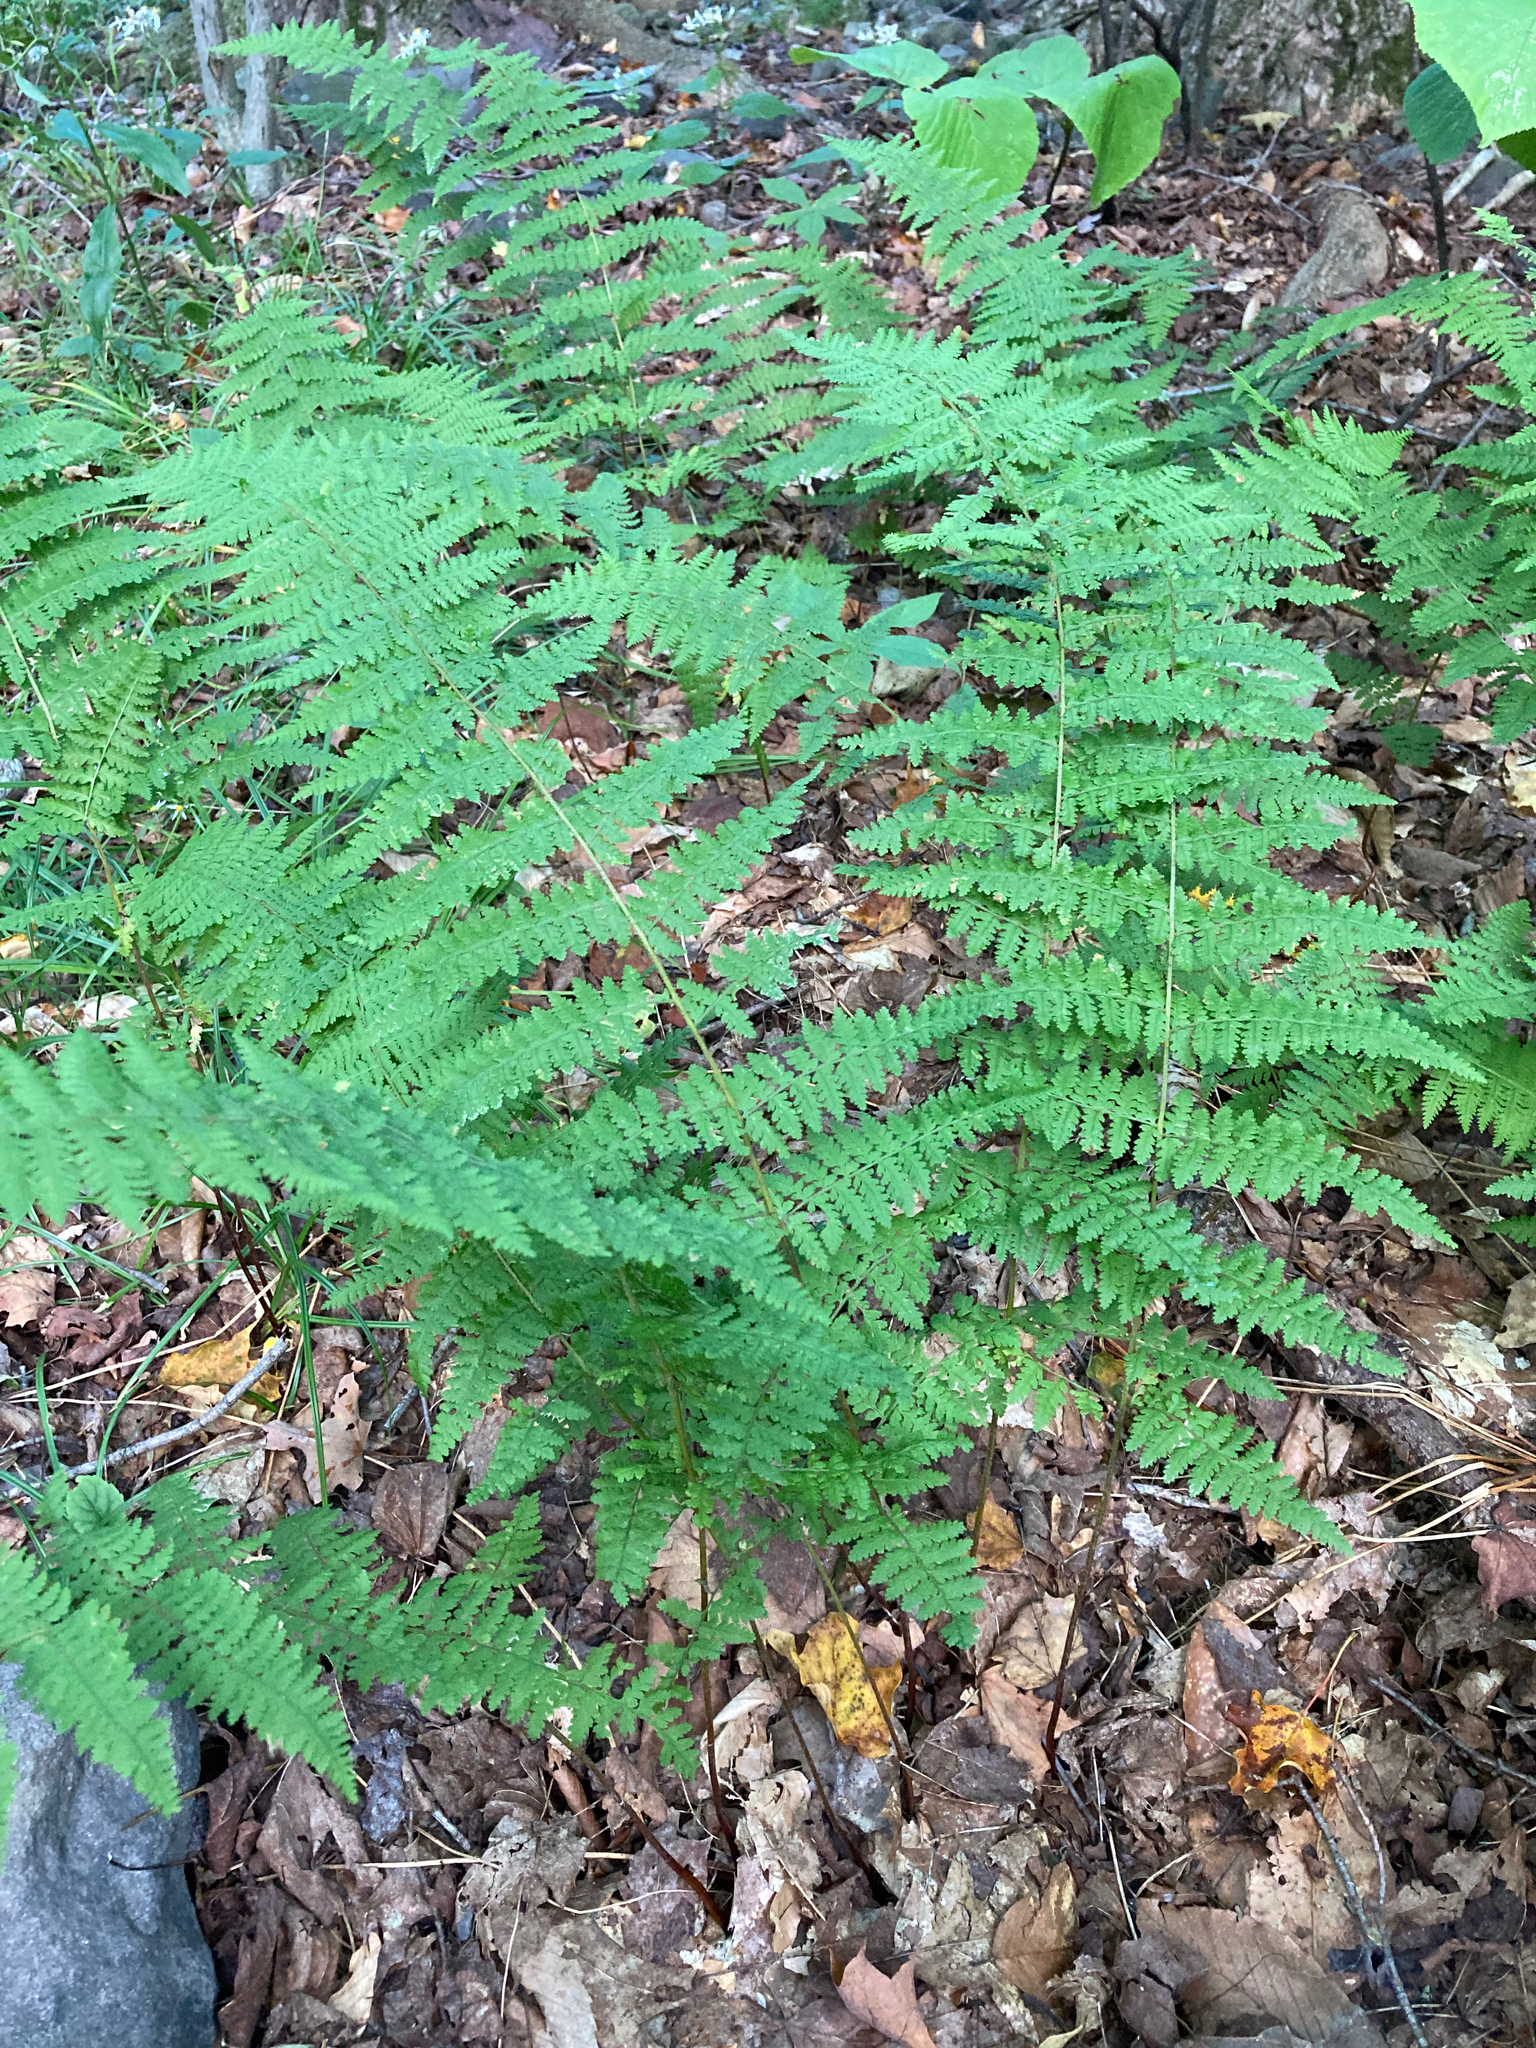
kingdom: Plantae
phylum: Tracheophyta
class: Polypodiopsida
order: Polypodiales
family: Dennstaedtiaceae
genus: Sitobolium
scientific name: Sitobolium punctilobum
